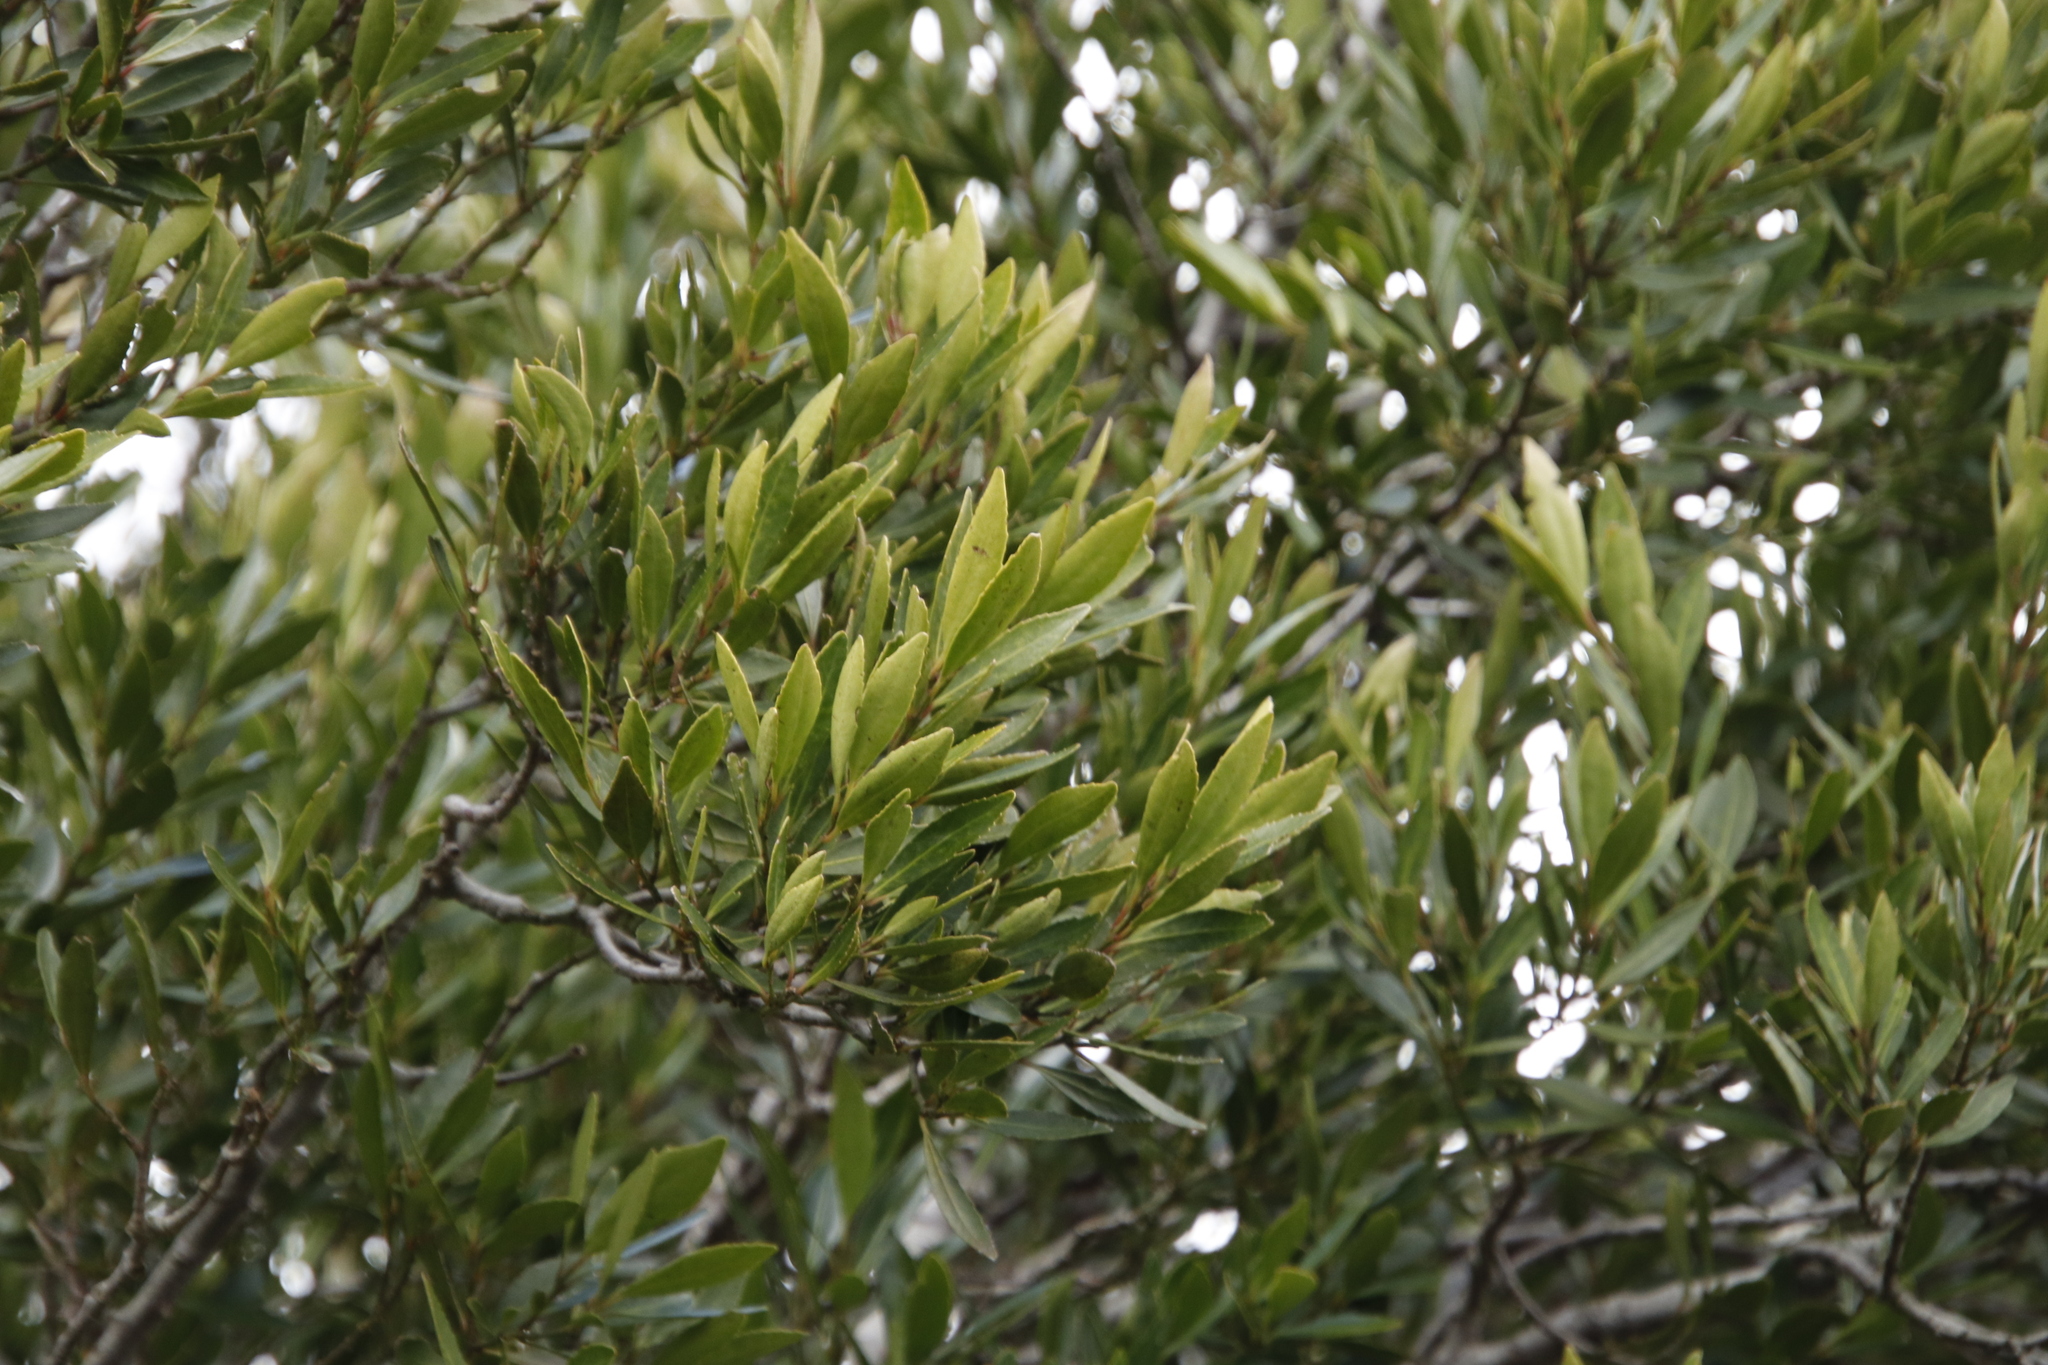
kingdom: Plantae
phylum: Tracheophyta
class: Magnoliopsida
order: Celastrales
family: Celastraceae
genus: Elaeodendron
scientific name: Elaeodendron schinoides
